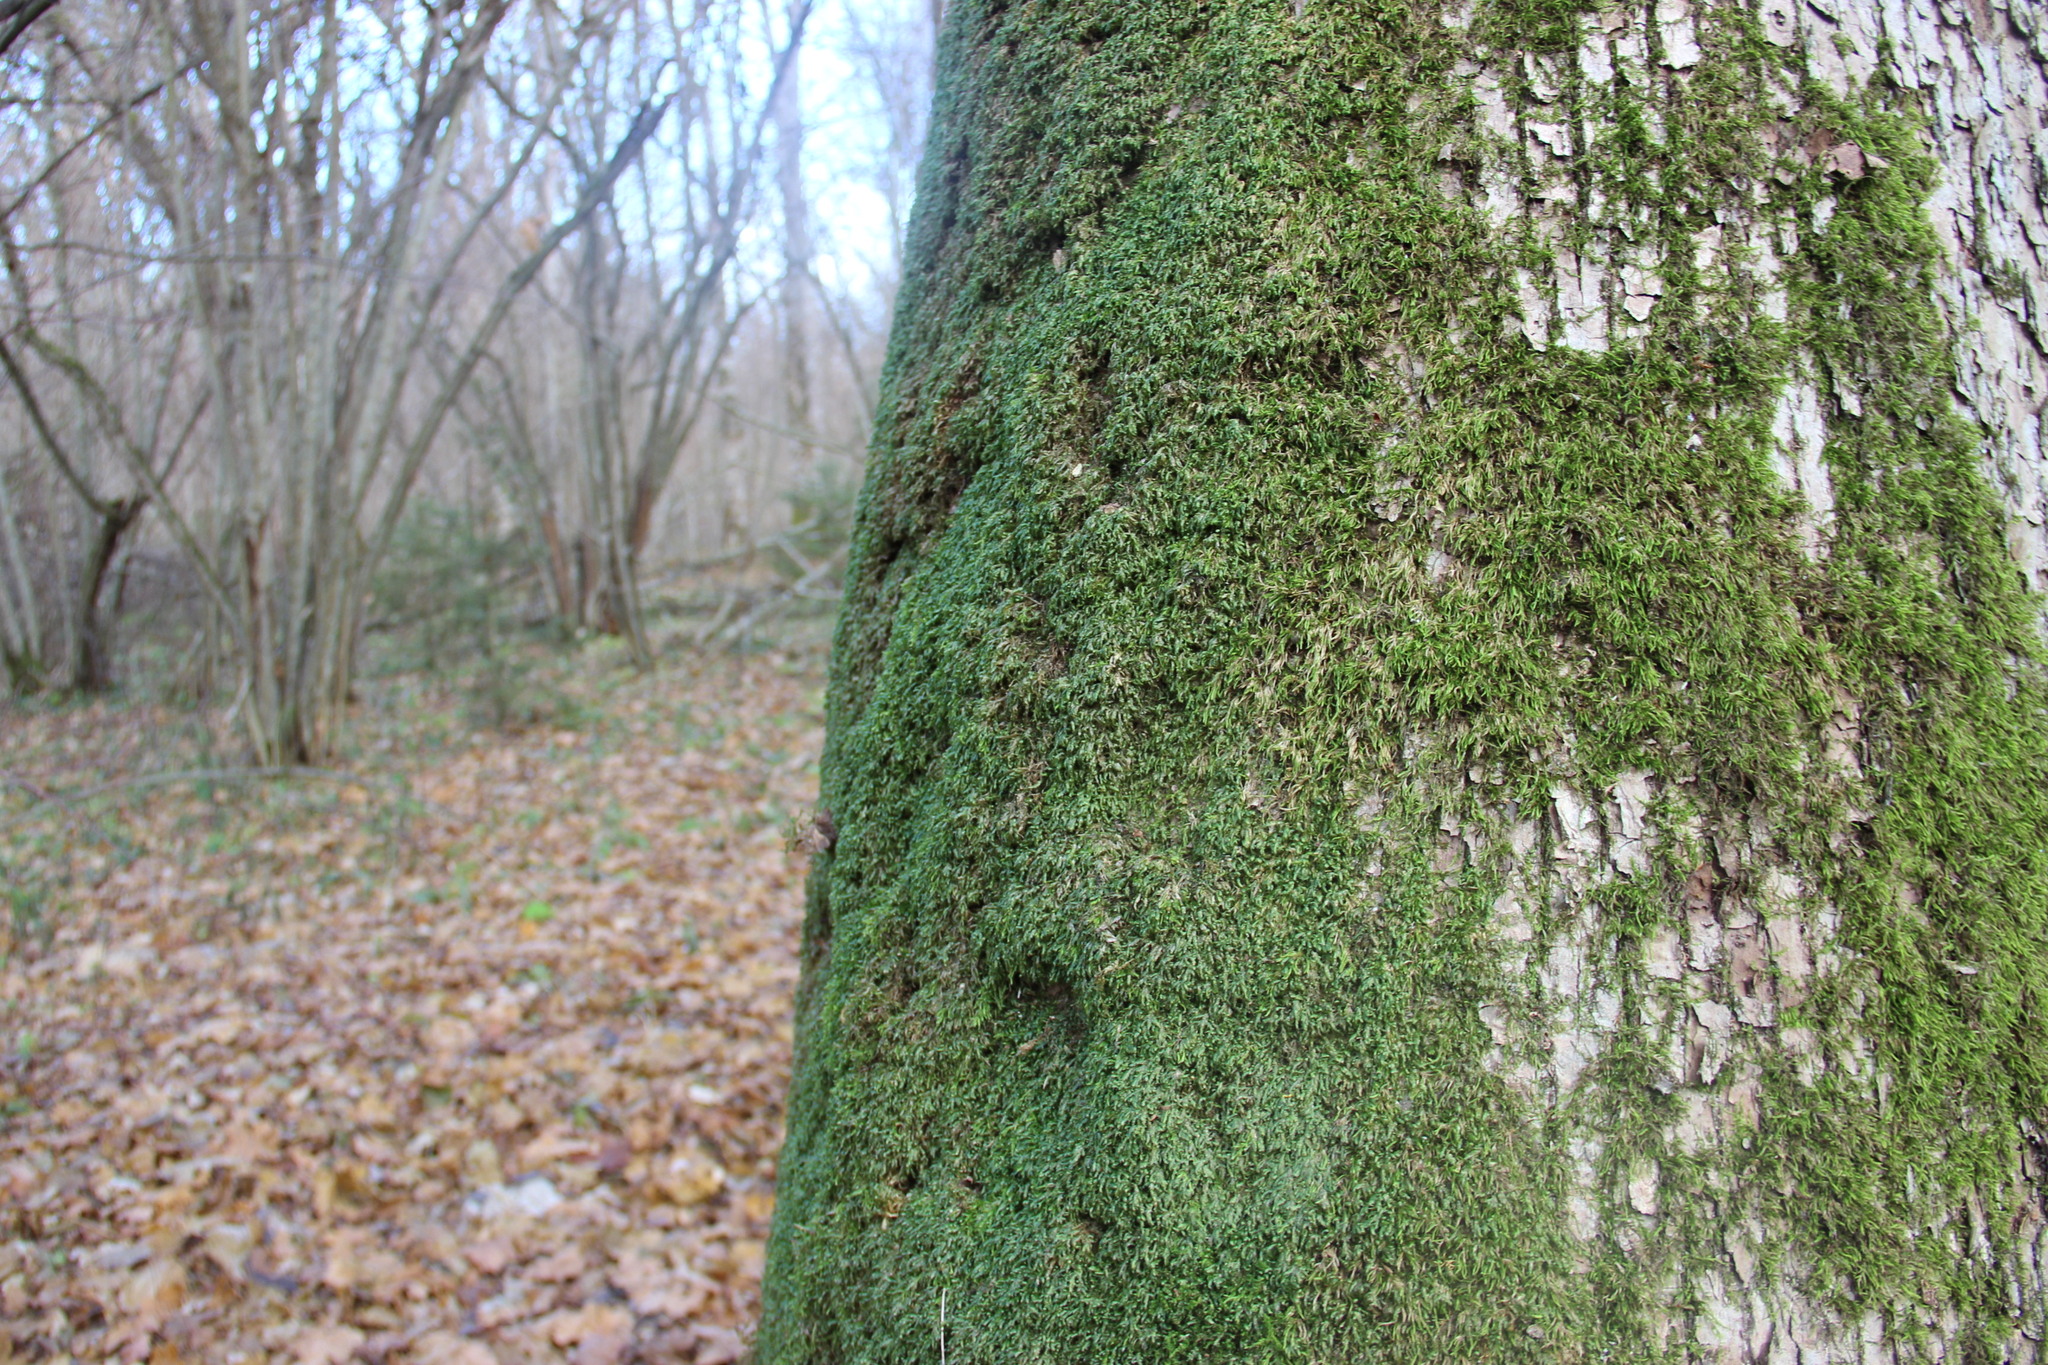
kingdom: Plantae
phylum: Bryophyta
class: Bryopsida
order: Hypnales
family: Neckeraceae
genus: Homalia
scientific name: Homalia trichomanoides
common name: Lime homalia moss
